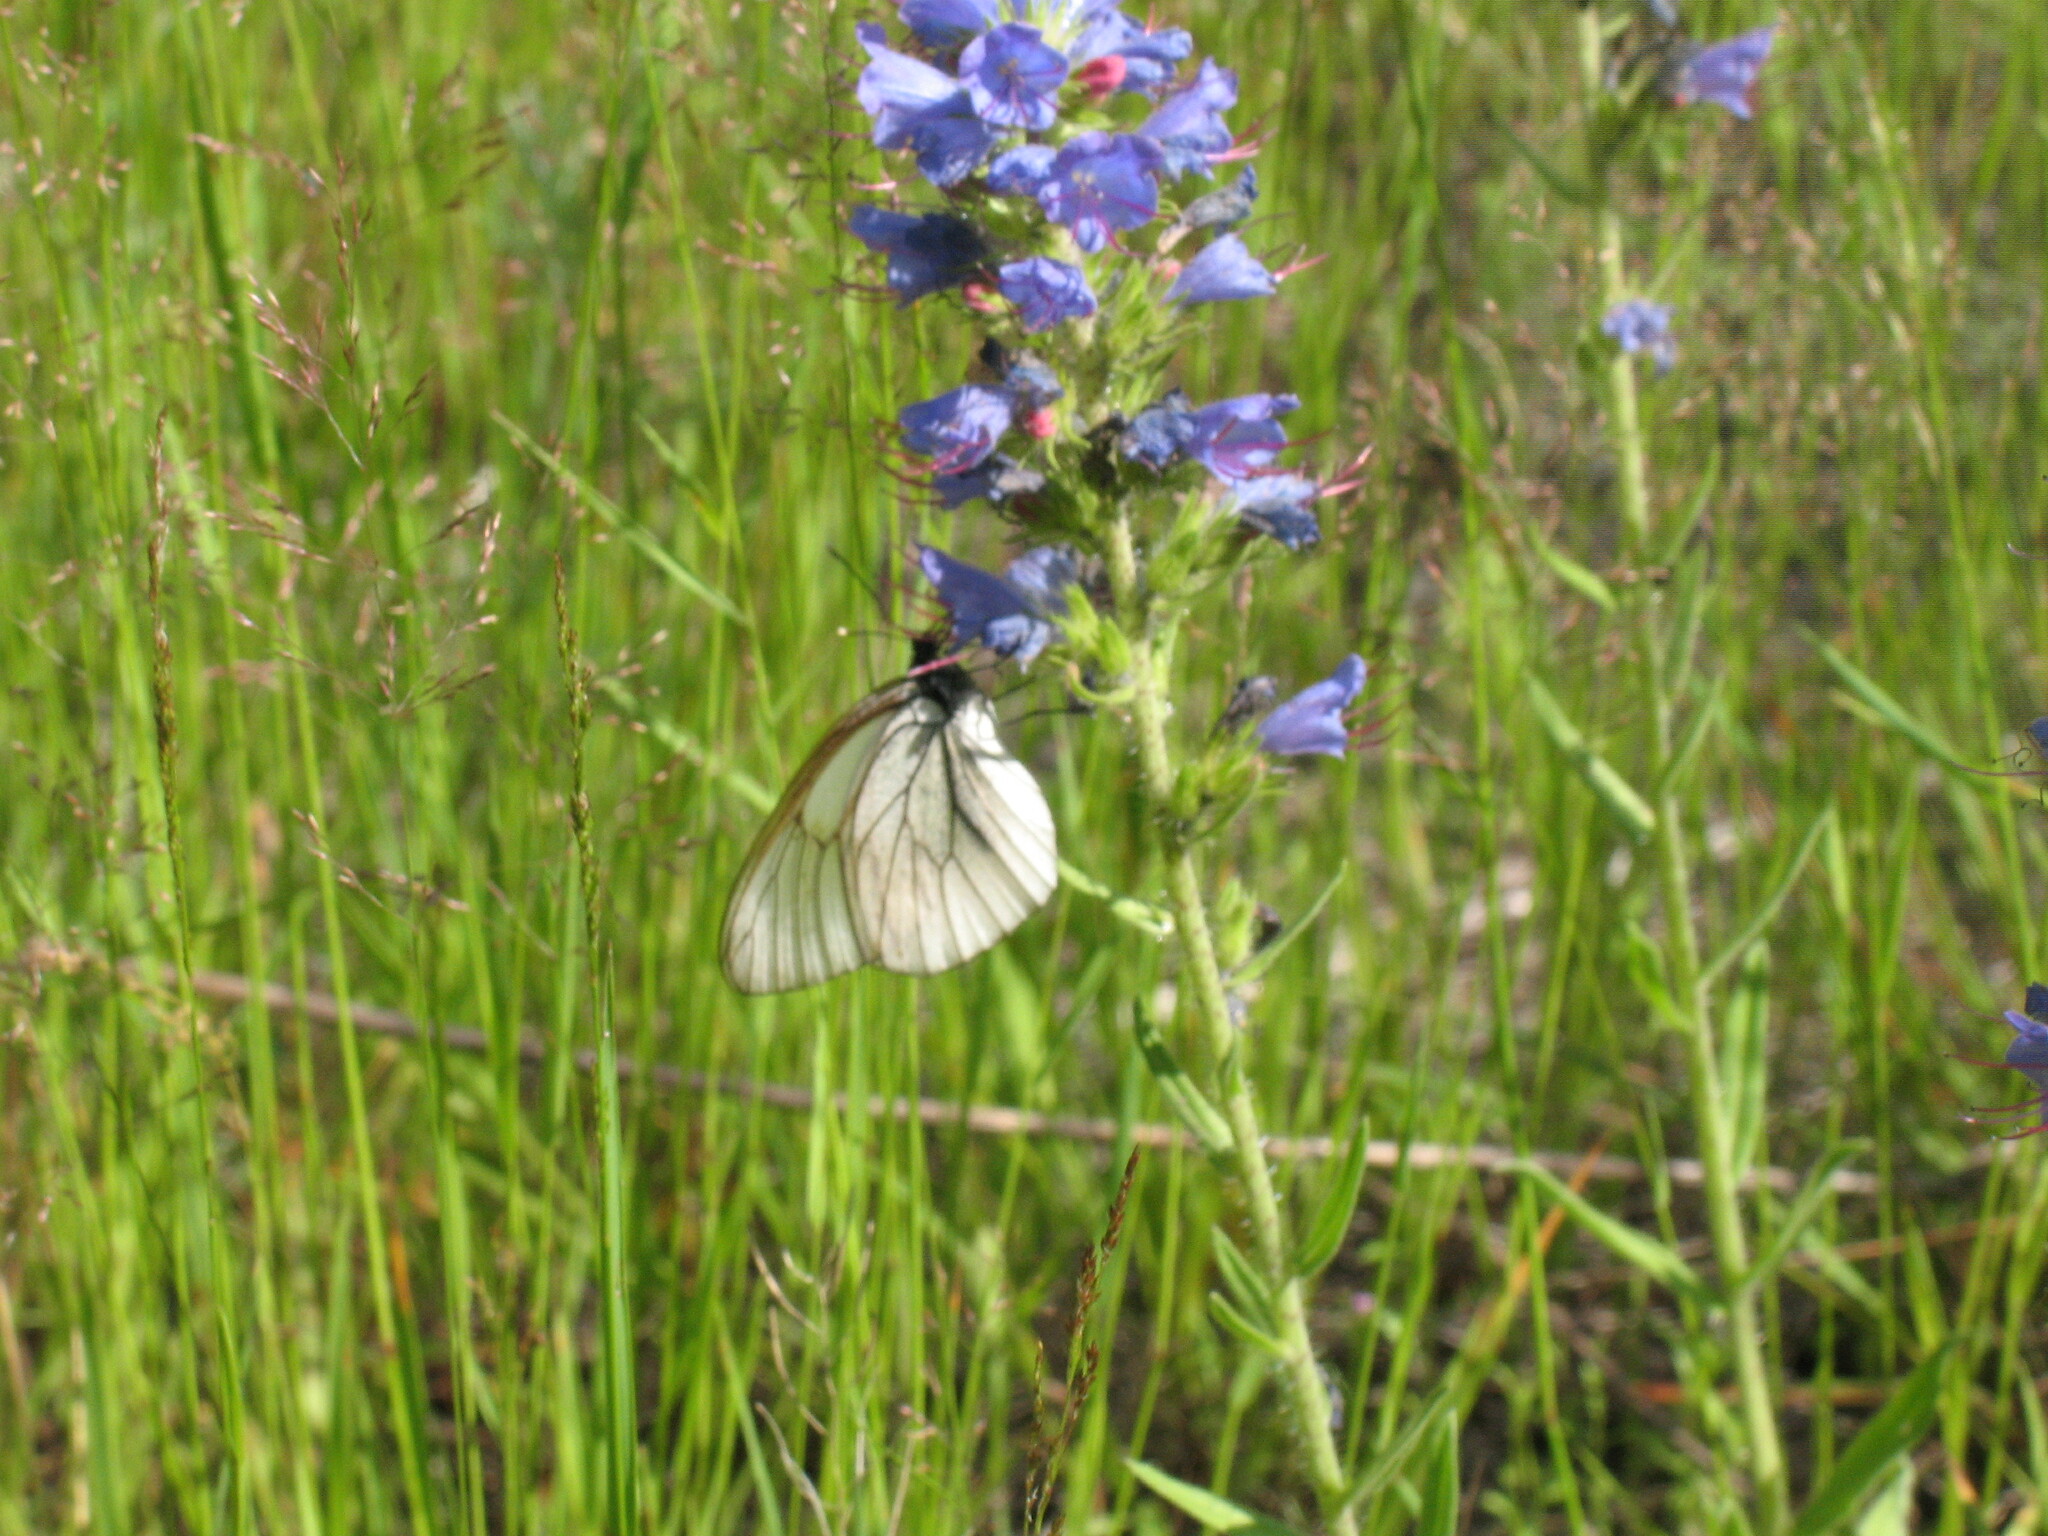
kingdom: Animalia
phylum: Arthropoda
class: Insecta
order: Lepidoptera
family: Pieridae
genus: Aporia
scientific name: Aporia crataegi
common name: Black-veined white
